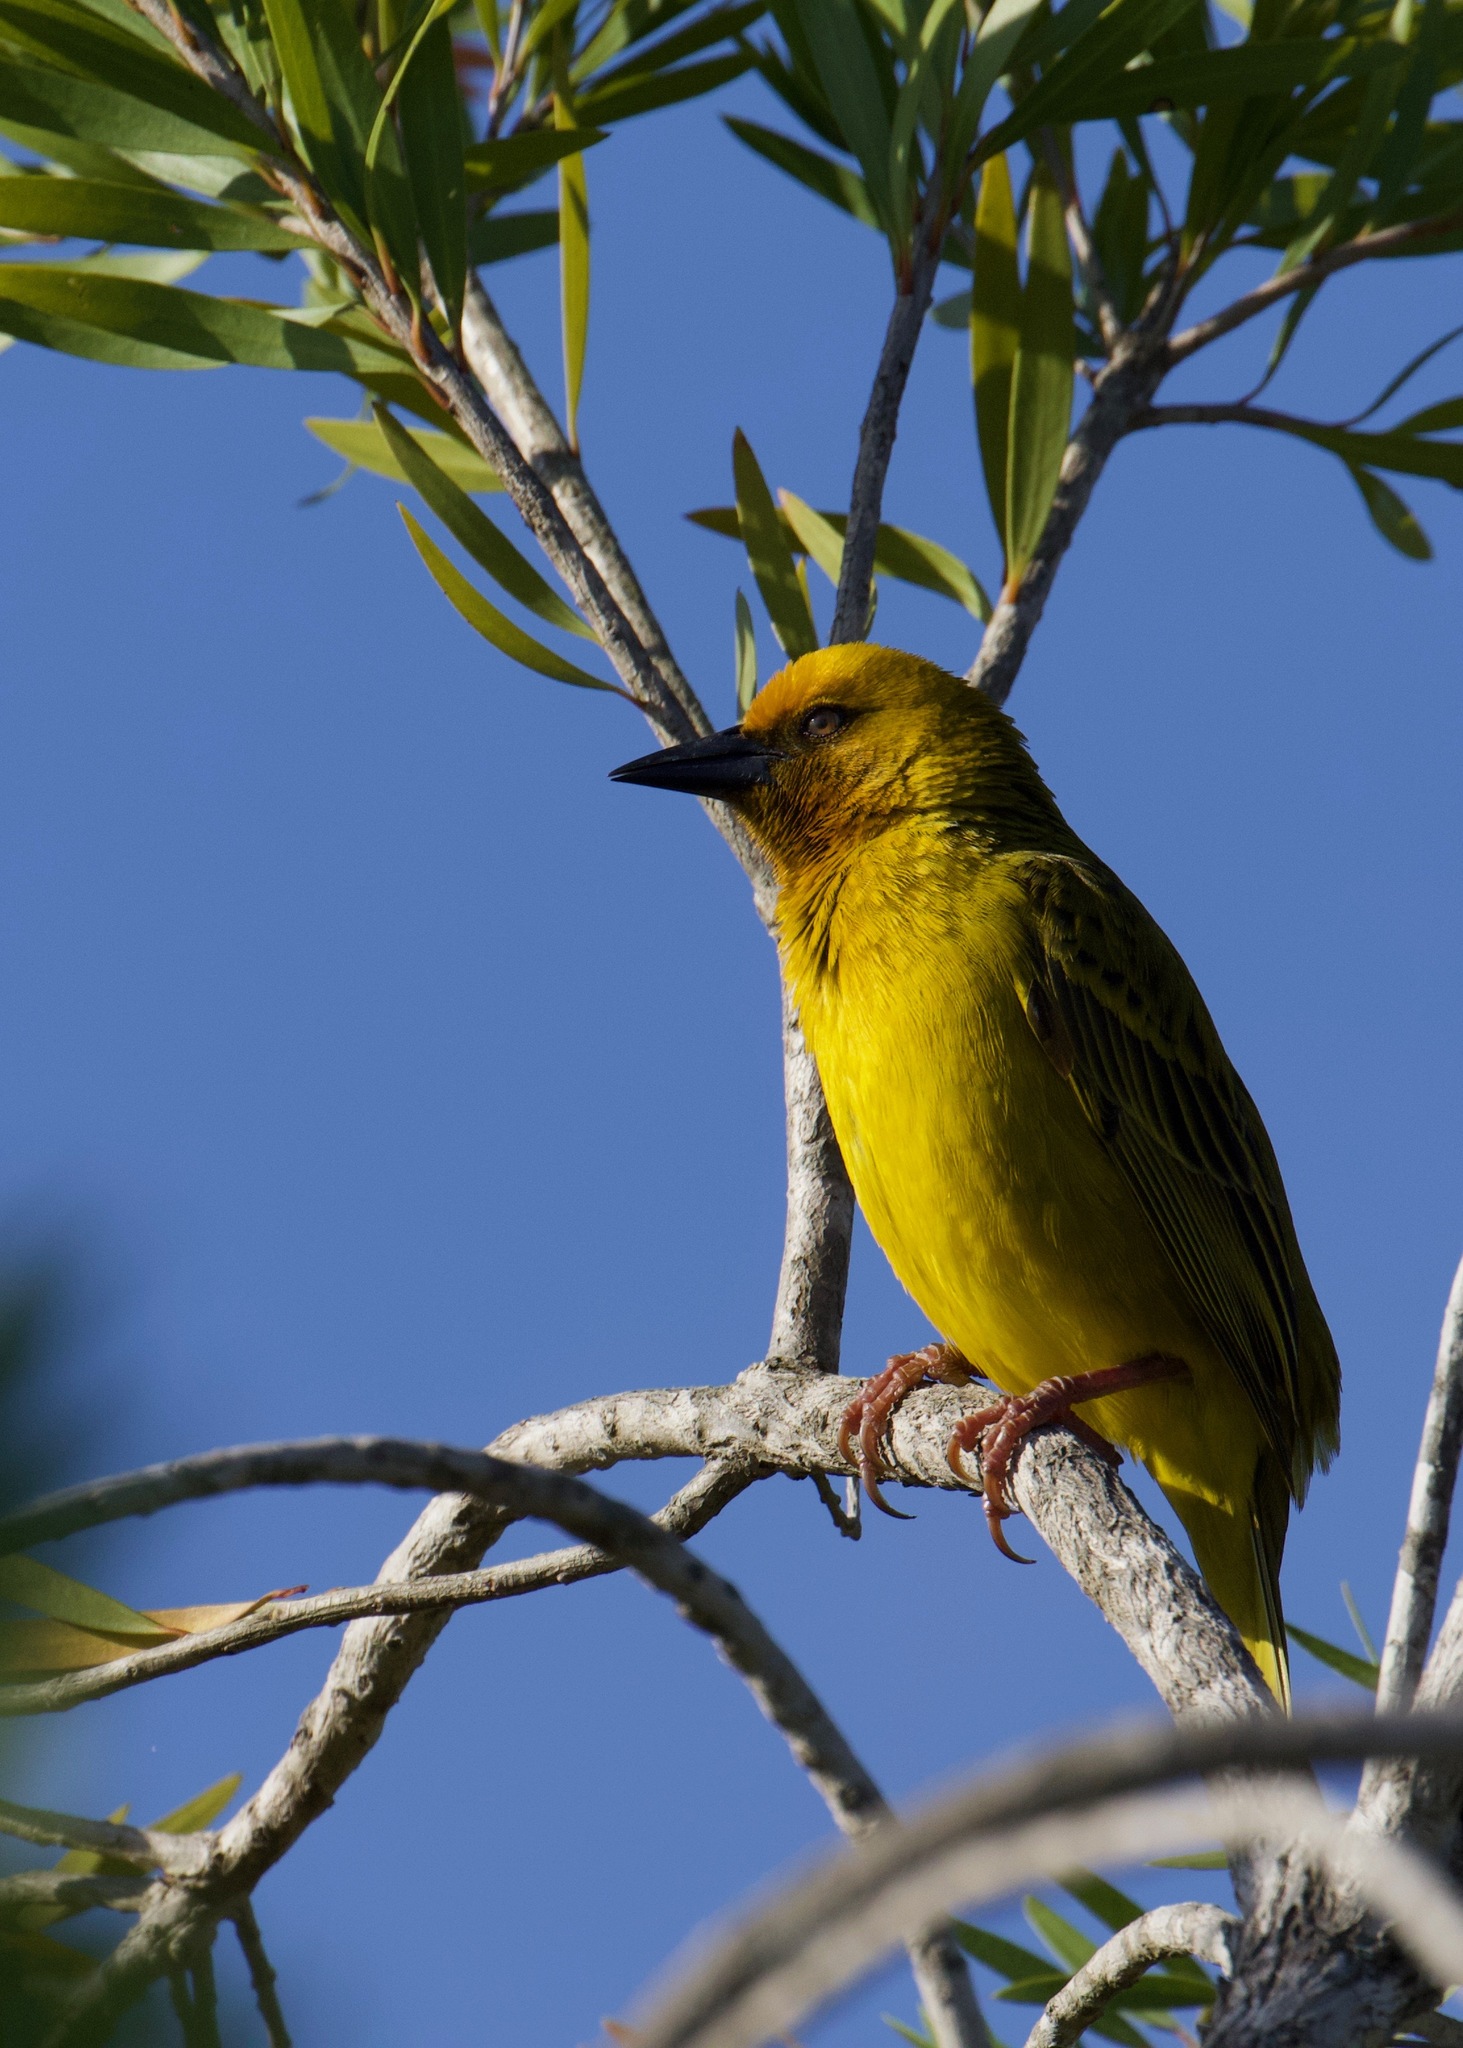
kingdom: Animalia
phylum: Chordata
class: Aves
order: Passeriformes
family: Ploceidae
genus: Ploceus
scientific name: Ploceus capensis
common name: Cape weaver
